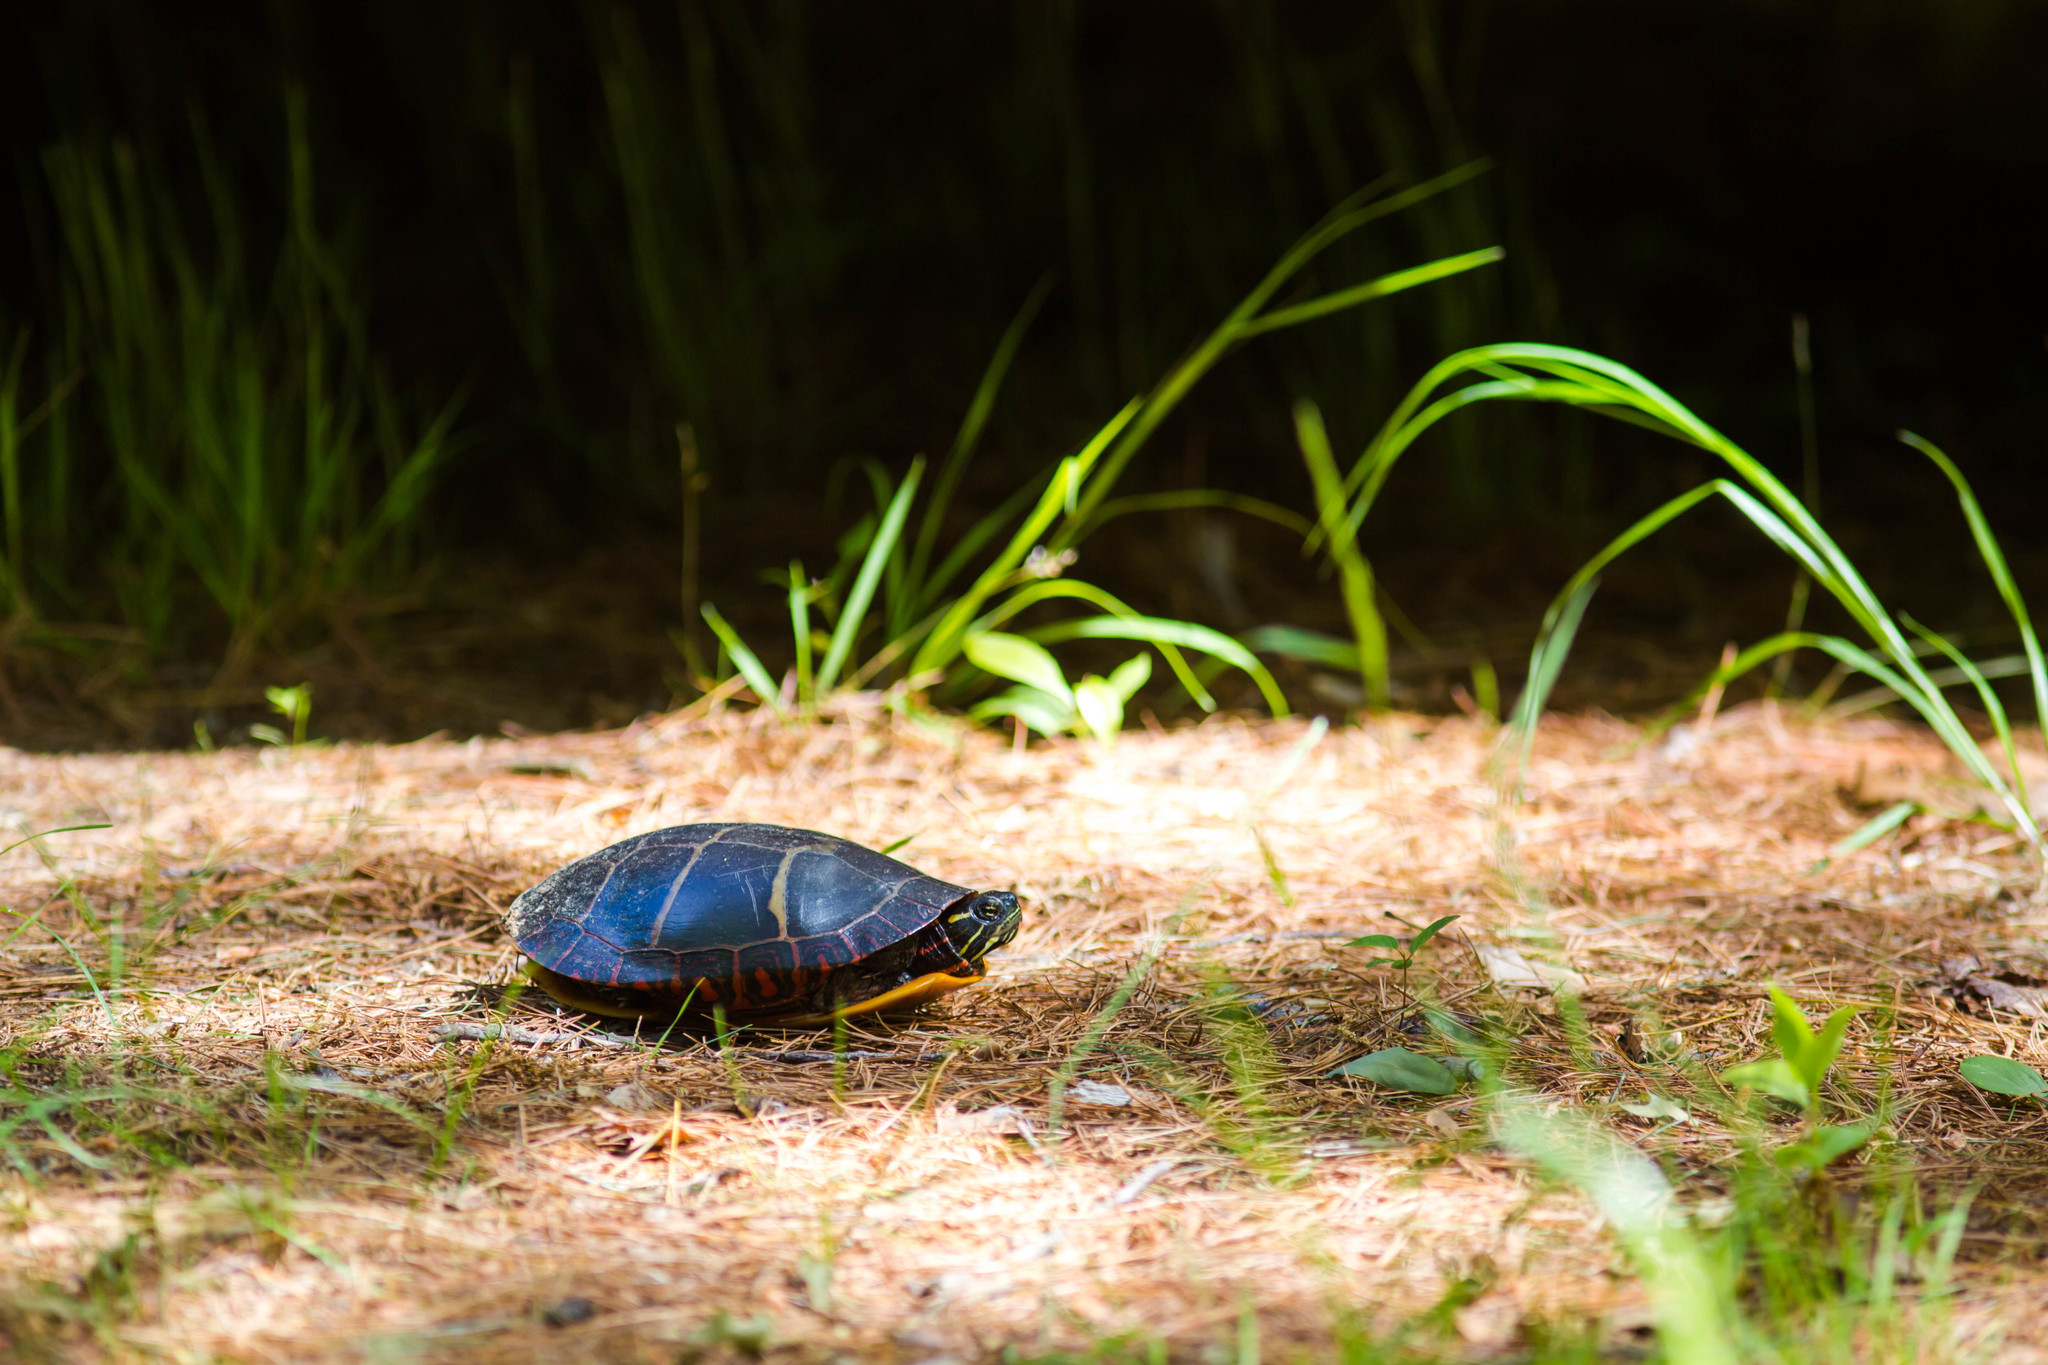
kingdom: Animalia
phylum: Chordata
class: Testudines
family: Emydidae
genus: Chrysemys
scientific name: Chrysemys picta
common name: Painted turtle
